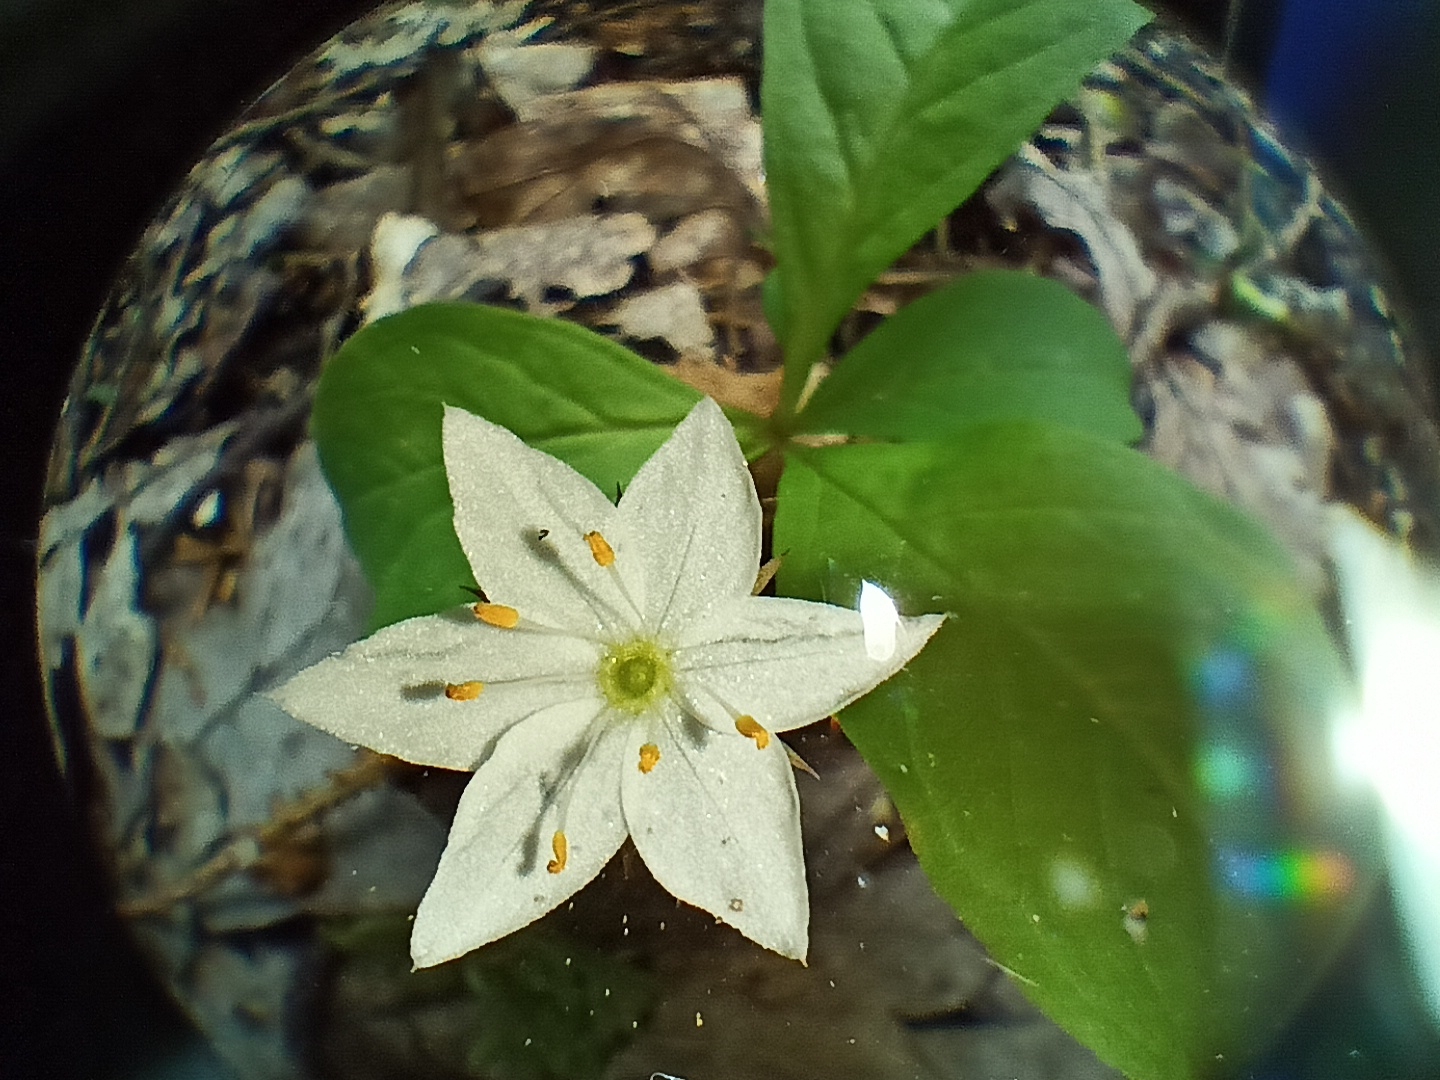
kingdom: Plantae
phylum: Tracheophyta
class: Magnoliopsida
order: Ericales
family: Primulaceae
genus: Lysimachia
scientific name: Lysimachia europaea
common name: Arctic starflower
